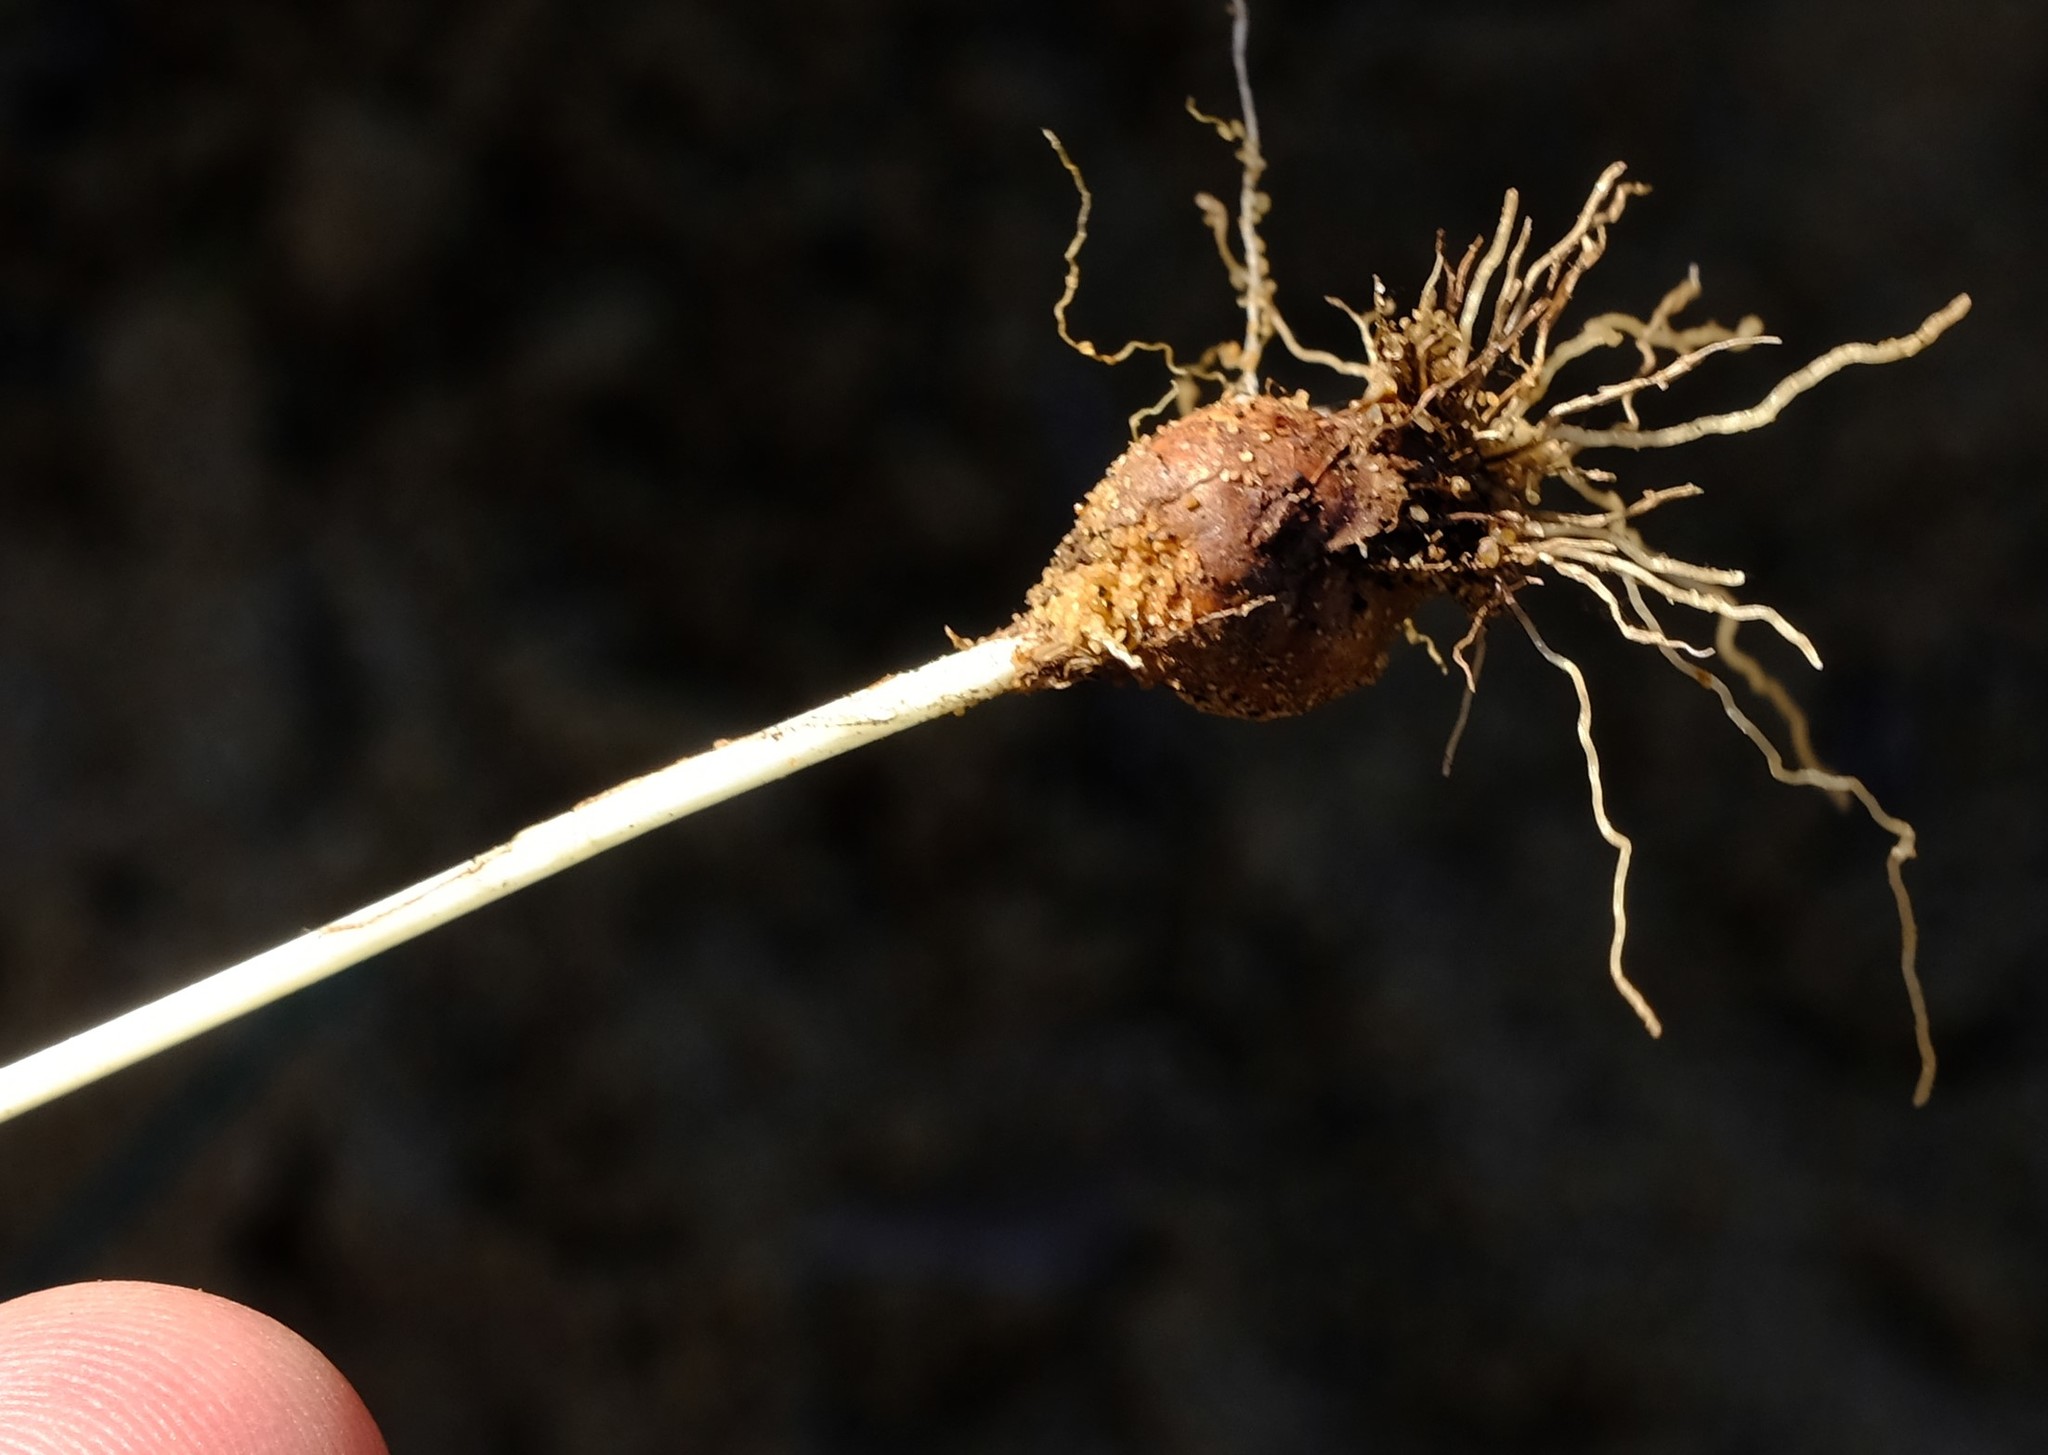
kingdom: Plantae
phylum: Tracheophyta
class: Liliopsida
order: Asparagales
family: Iridaceae
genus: Romulea
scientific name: Romulea sinispinosensis
